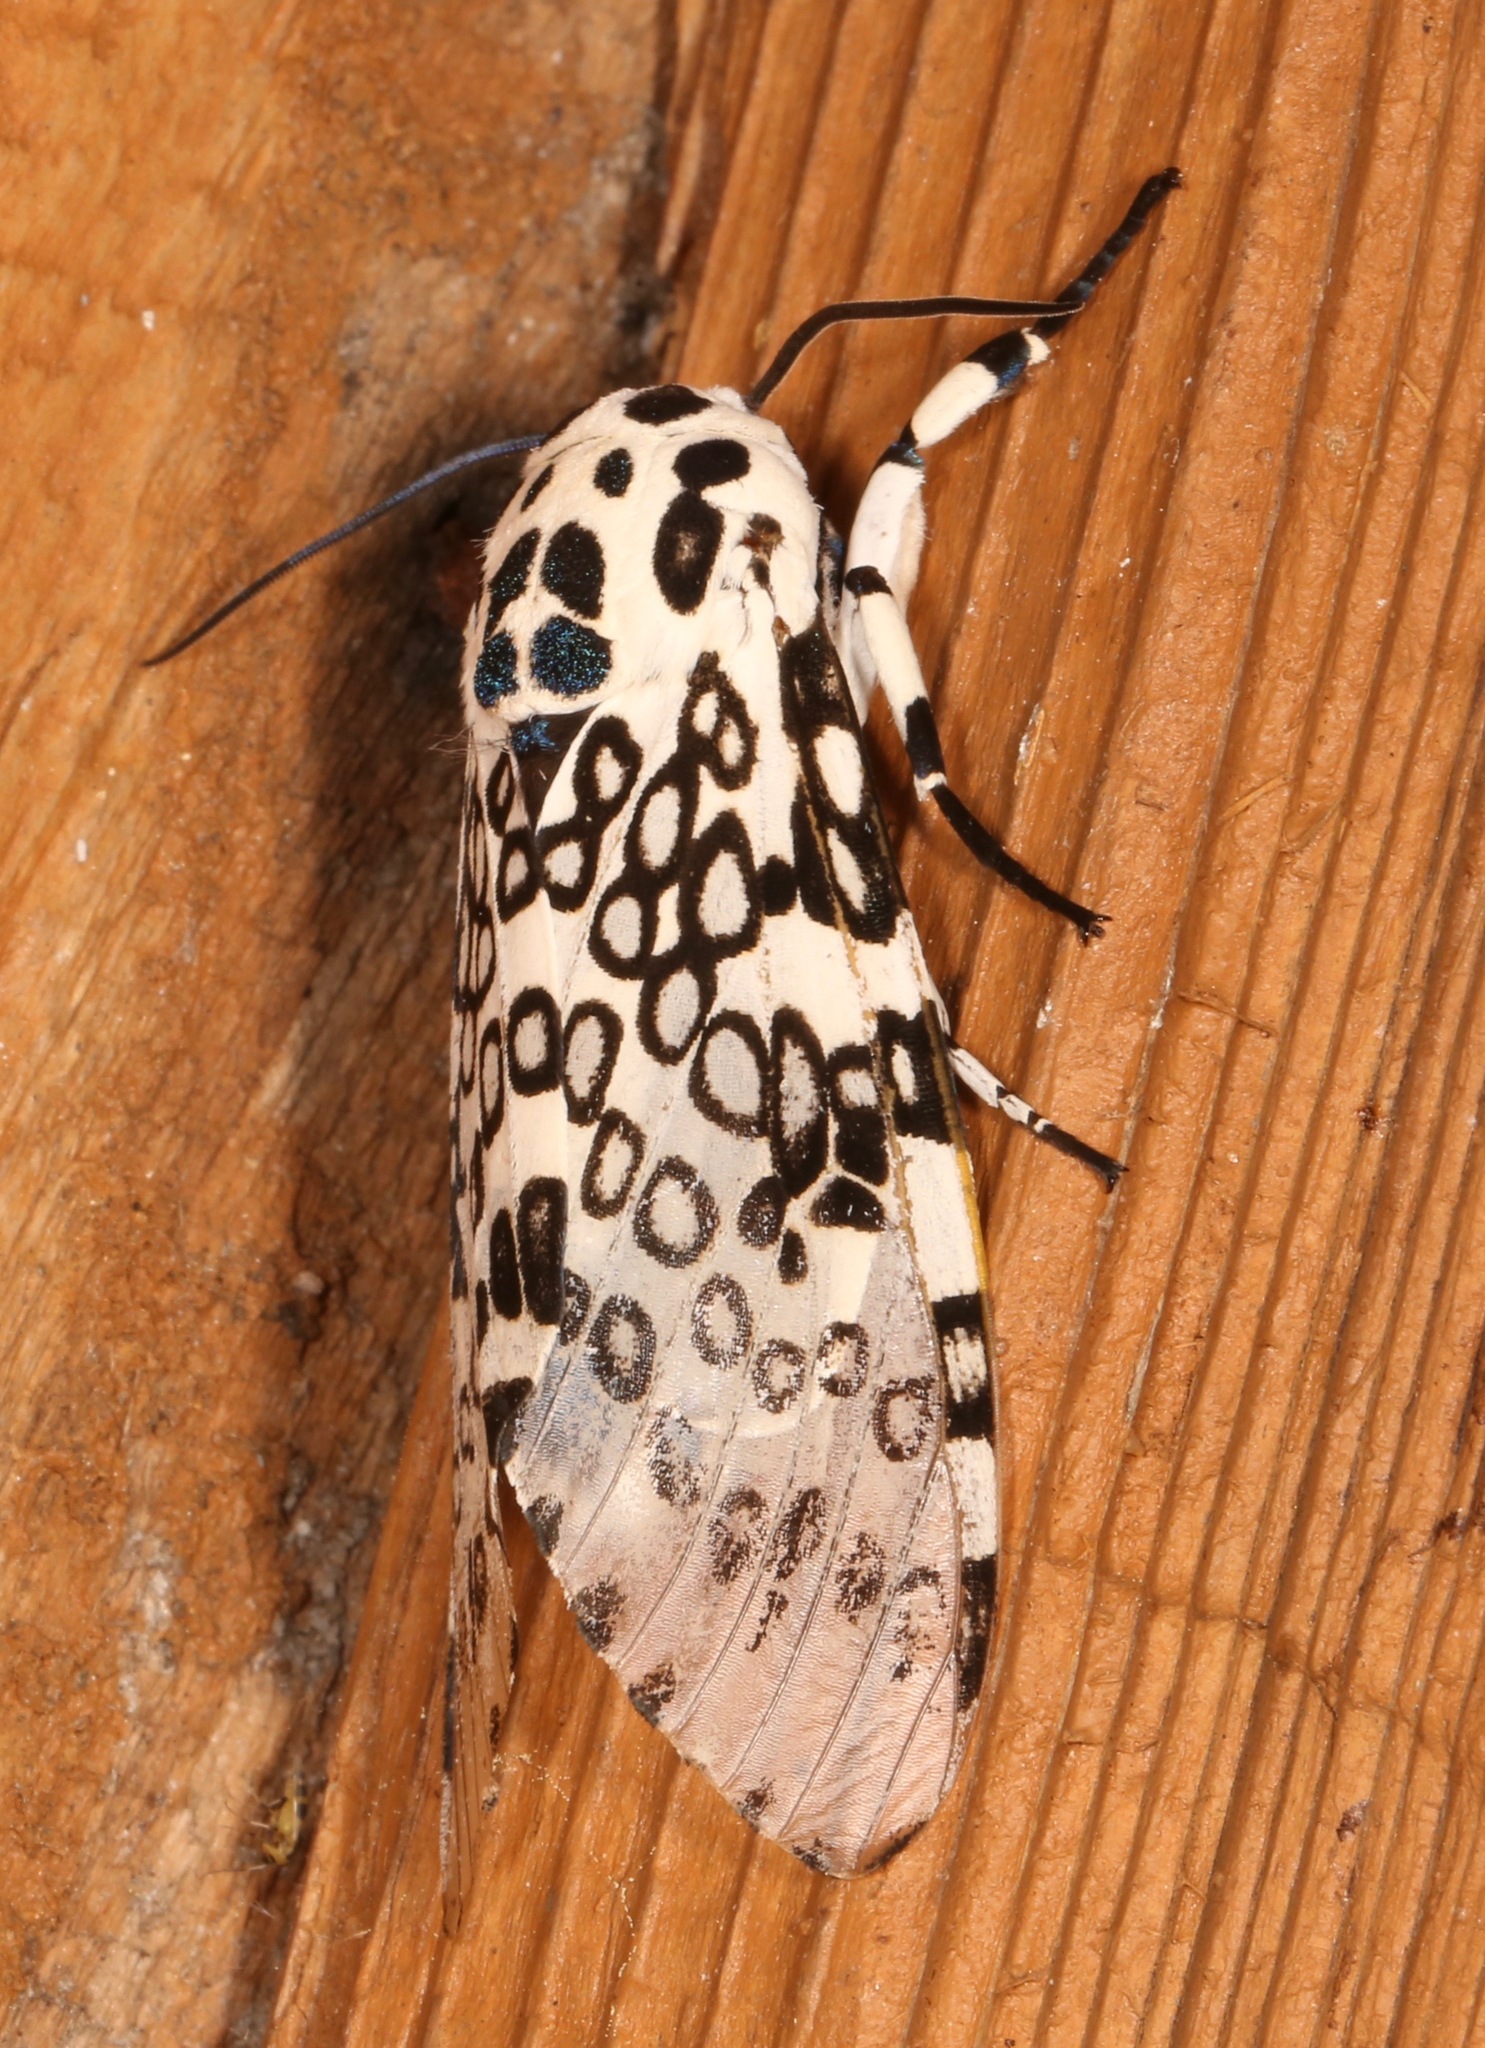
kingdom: Animalia
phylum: Arthropoda
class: Insecta
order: Lepidoptera
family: Erebidae
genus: Hypercompe
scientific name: Hypercompe scribonia
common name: Giant leopard moth
